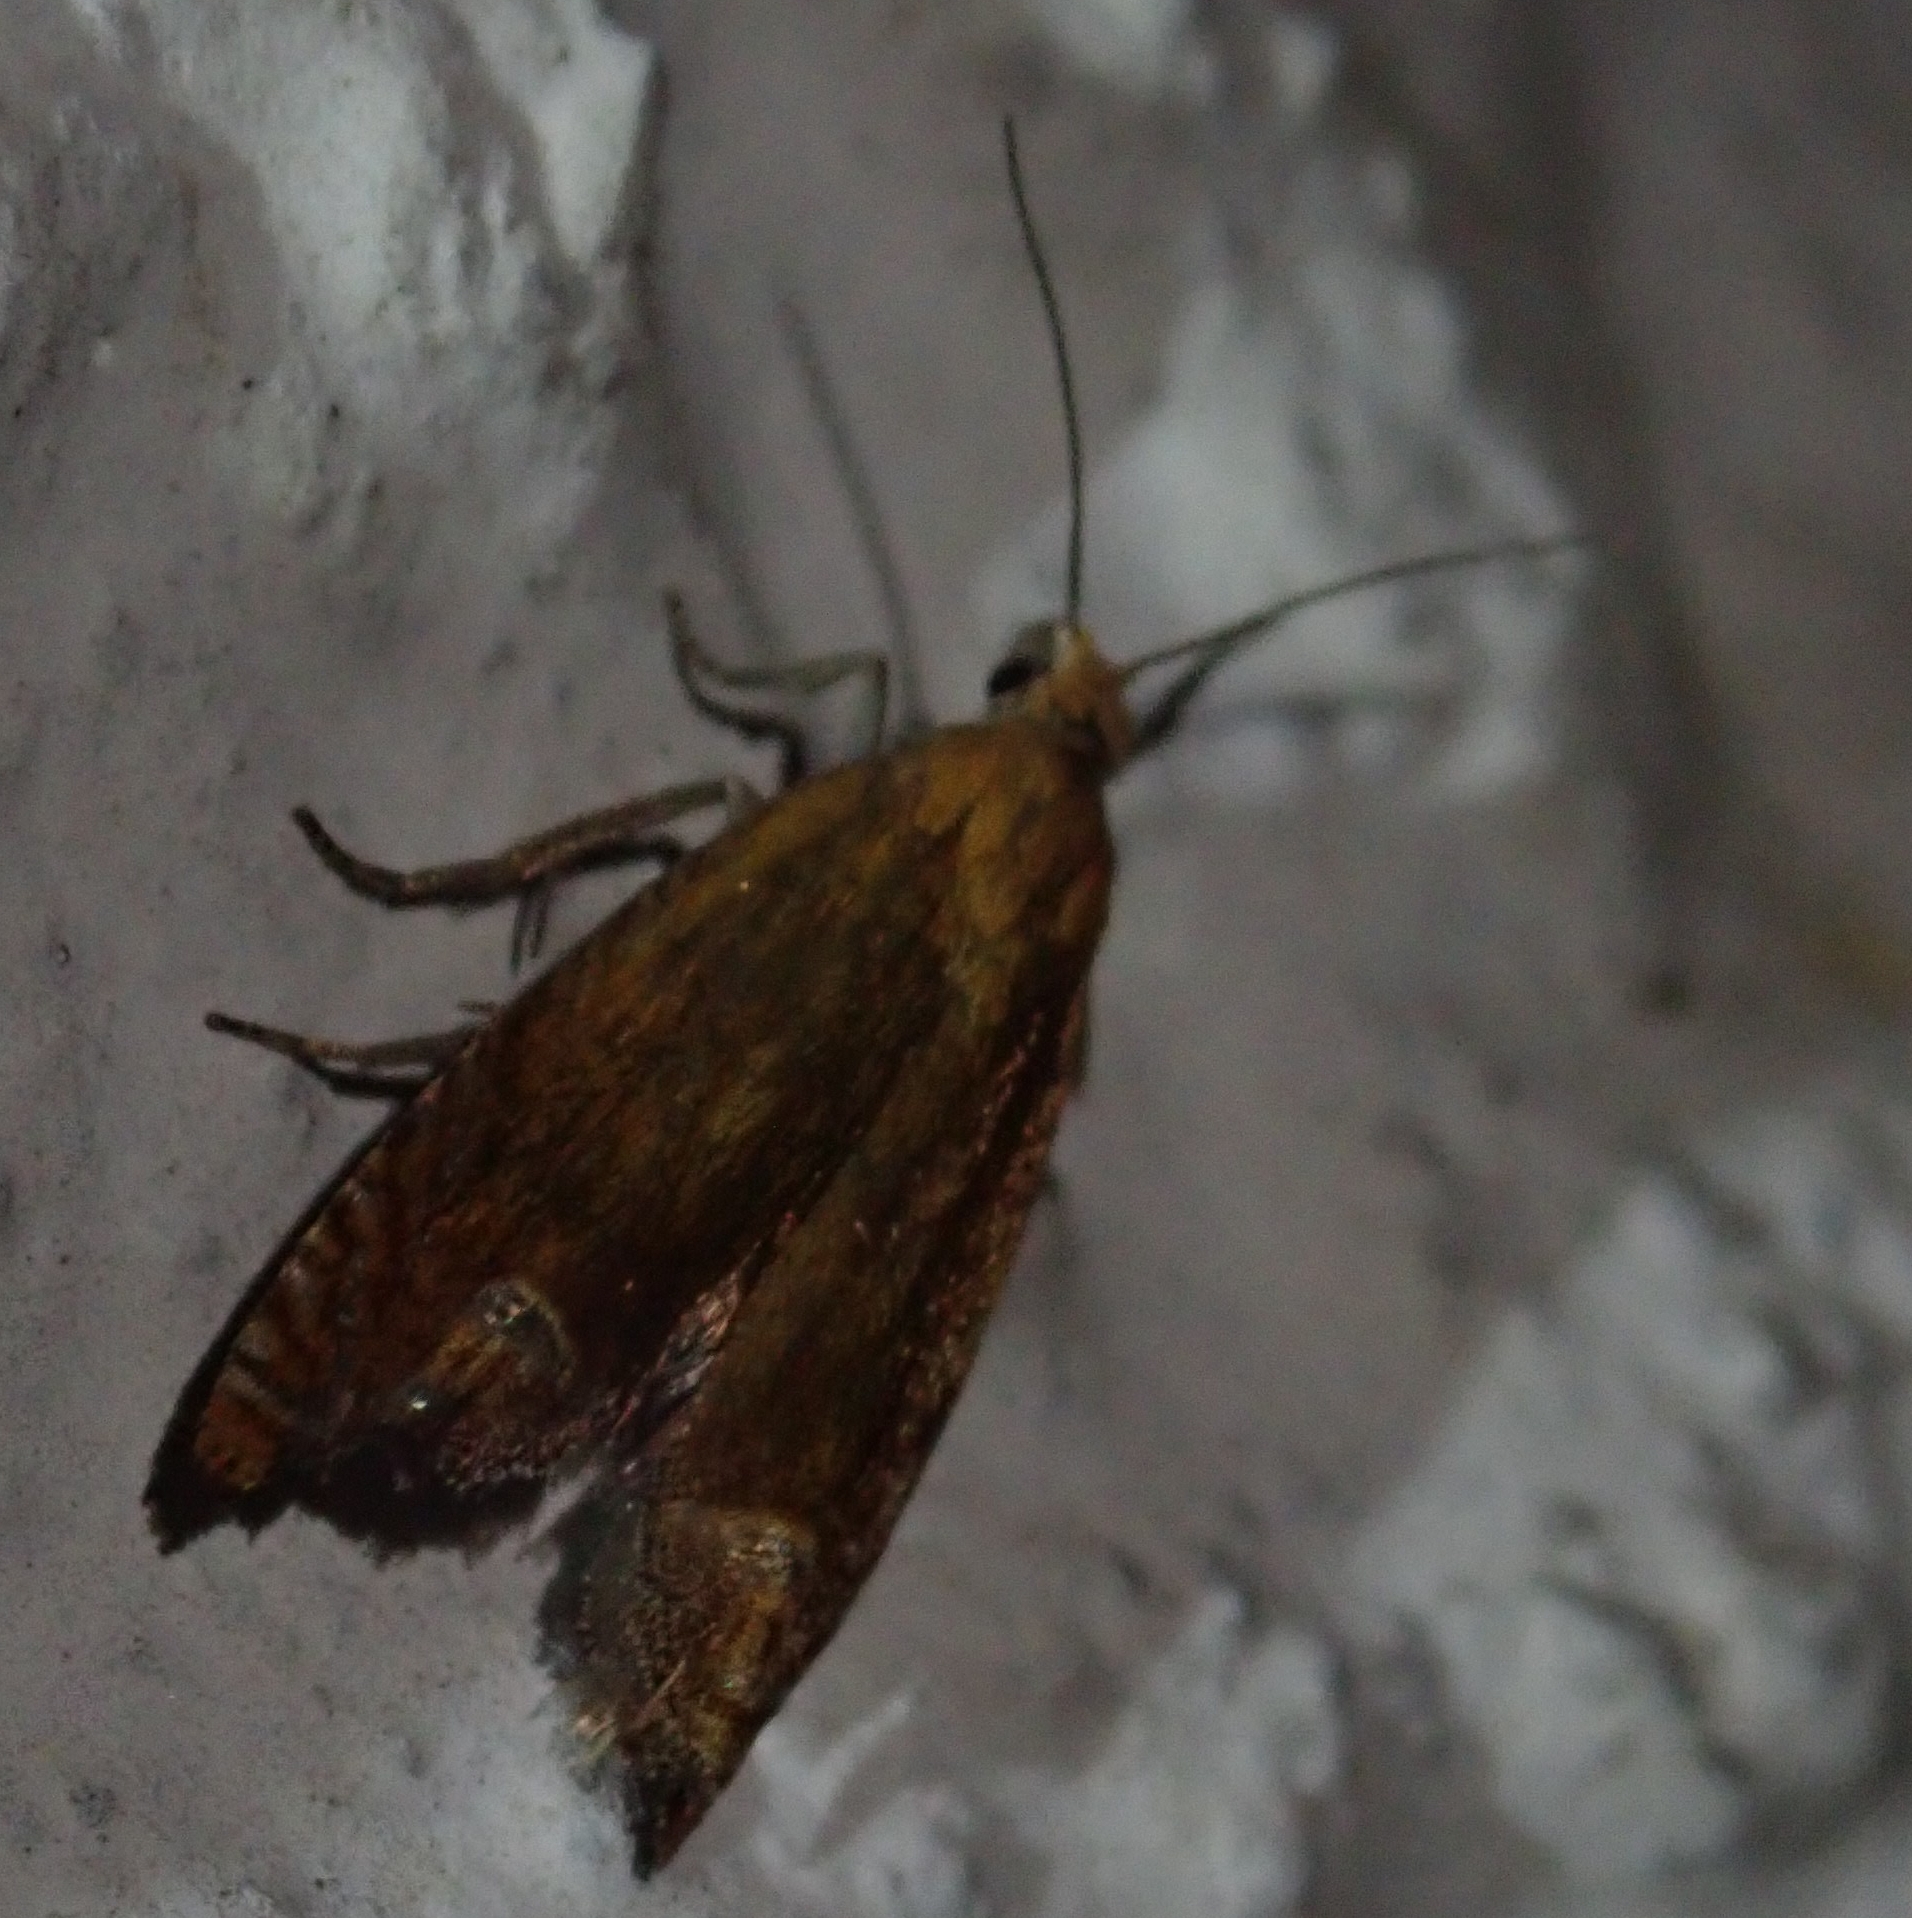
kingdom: Animalia
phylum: Arthropoda
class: Insecta
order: Lepidoptera
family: Tortricidae
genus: Lathronympha
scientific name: Lathronympha strigana
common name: Red piercer
